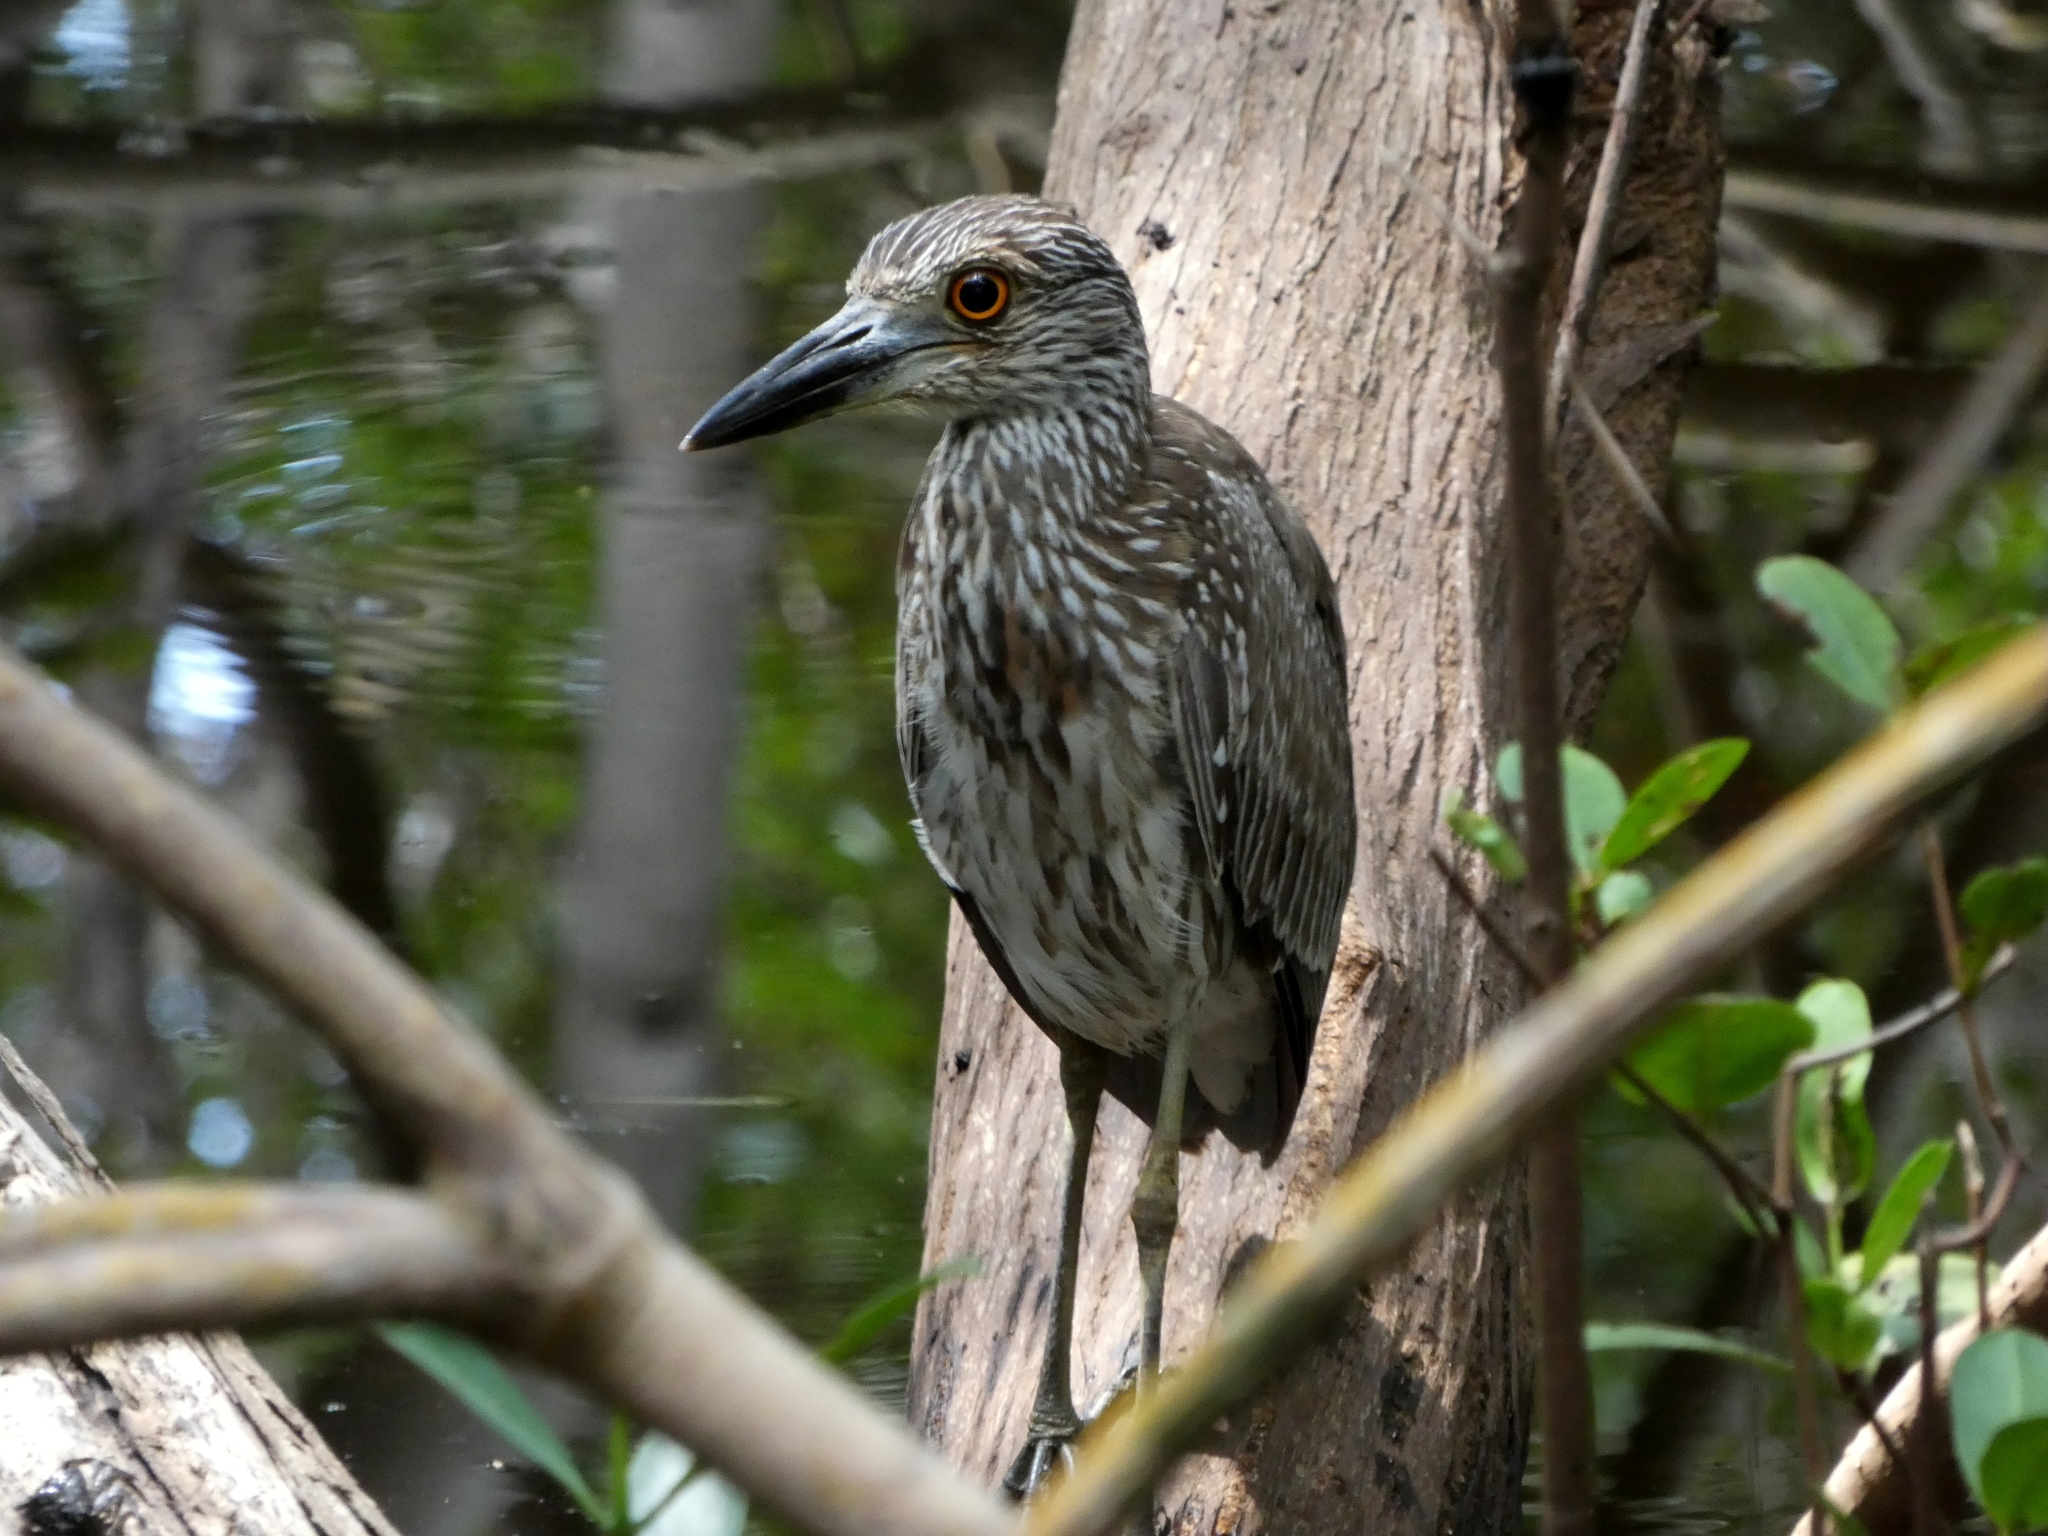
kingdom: Animalia
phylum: Chordata
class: Aves
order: Pelecaniformes
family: Ardeidae
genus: Nyctanassa
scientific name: Nyctanassa violacea
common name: Yellow-crowned night heron
